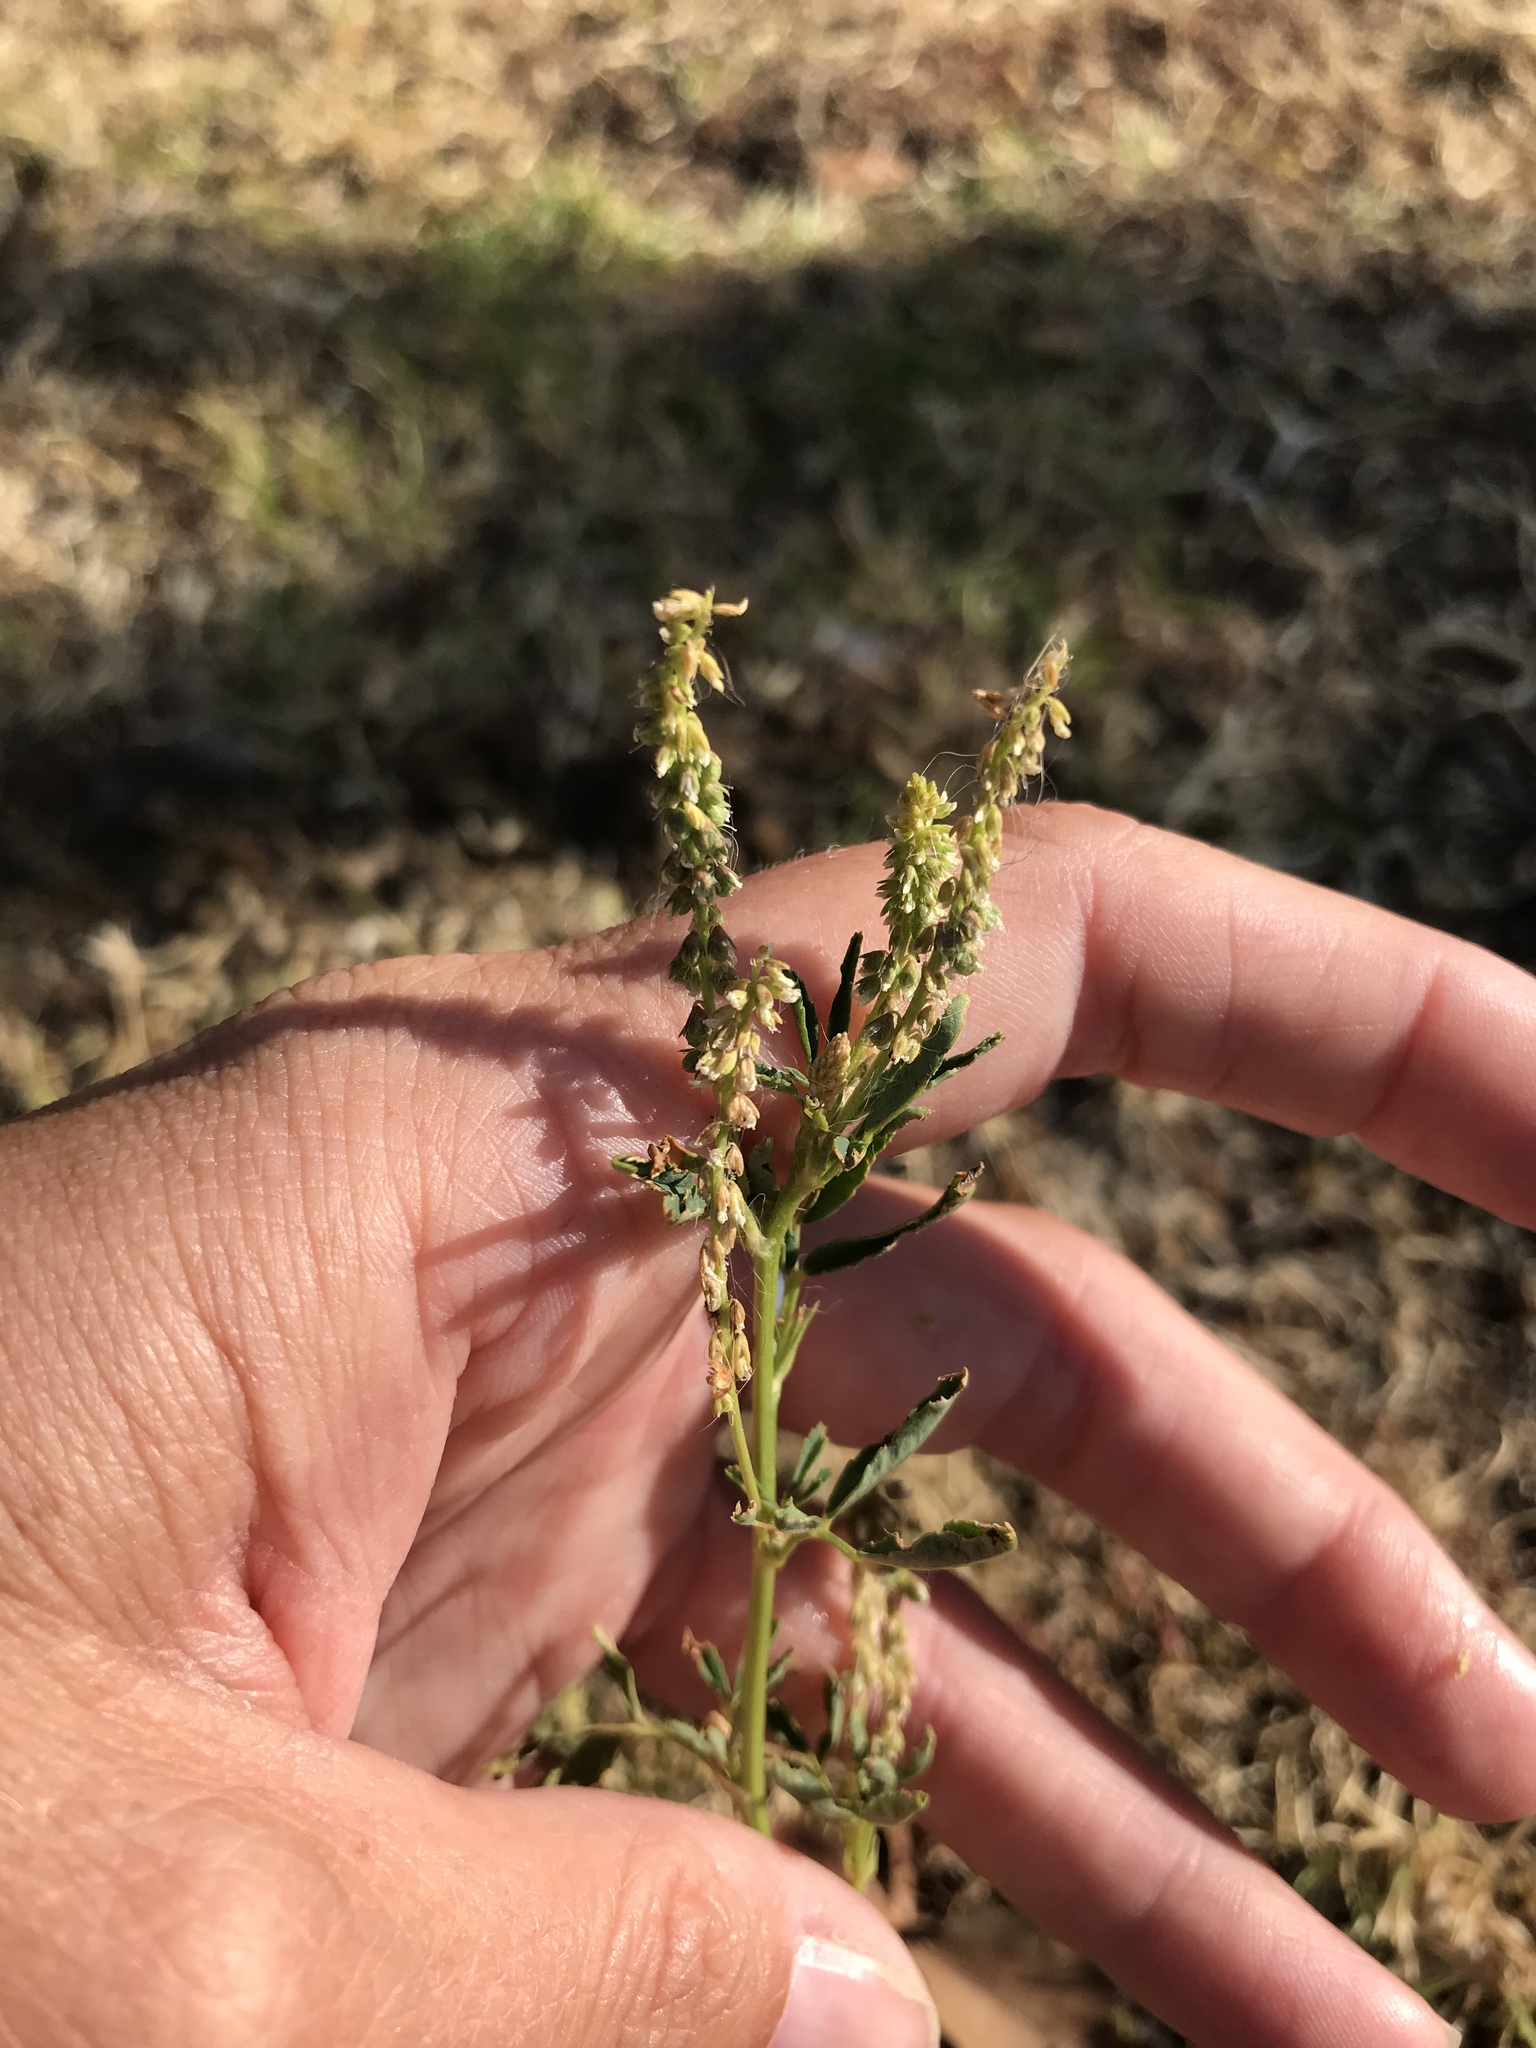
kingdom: Plantae
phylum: Tracheophyta
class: Magnoliopsida
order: Fabales
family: Fabaceae
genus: Melilotus
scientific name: Melilotus indicus
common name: Small melilot
